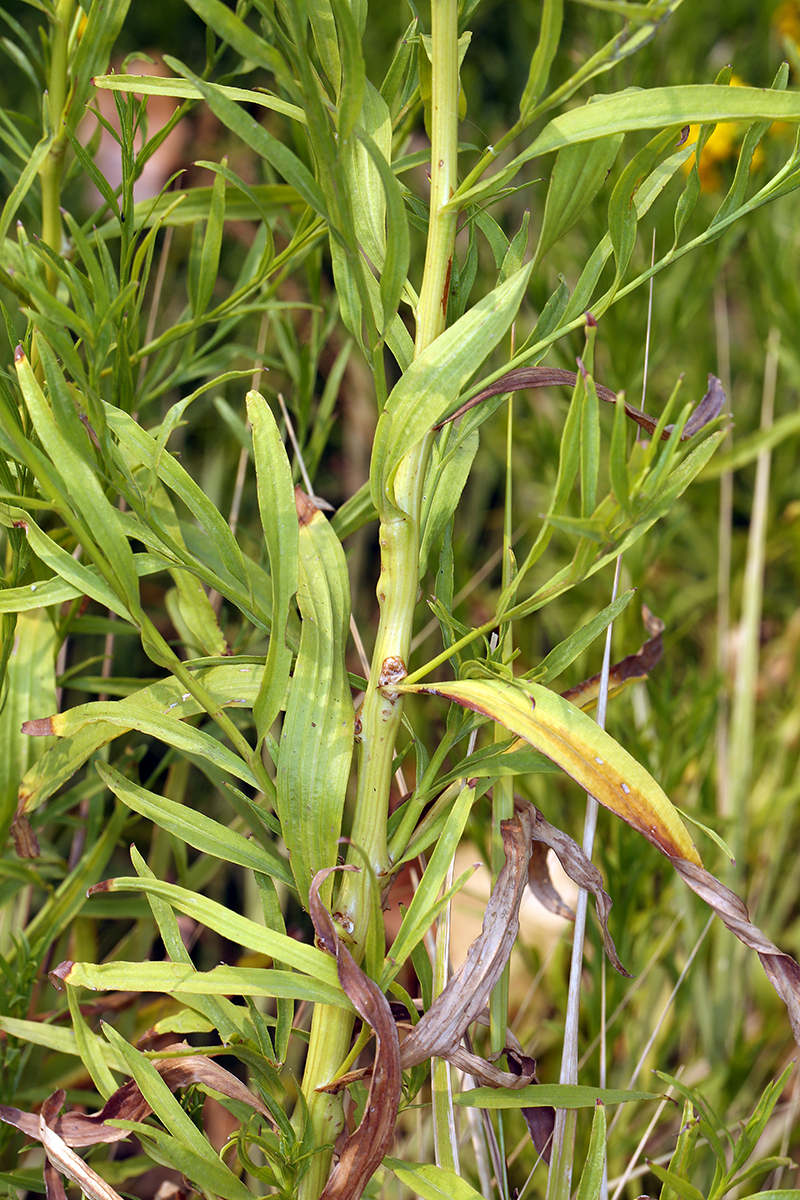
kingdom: Plantae
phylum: Tracheophyta
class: Magnoliopsida
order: Asterales
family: Asteraceae
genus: Euthamia
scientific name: Euthamia occidentalis
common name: Western goldentop
